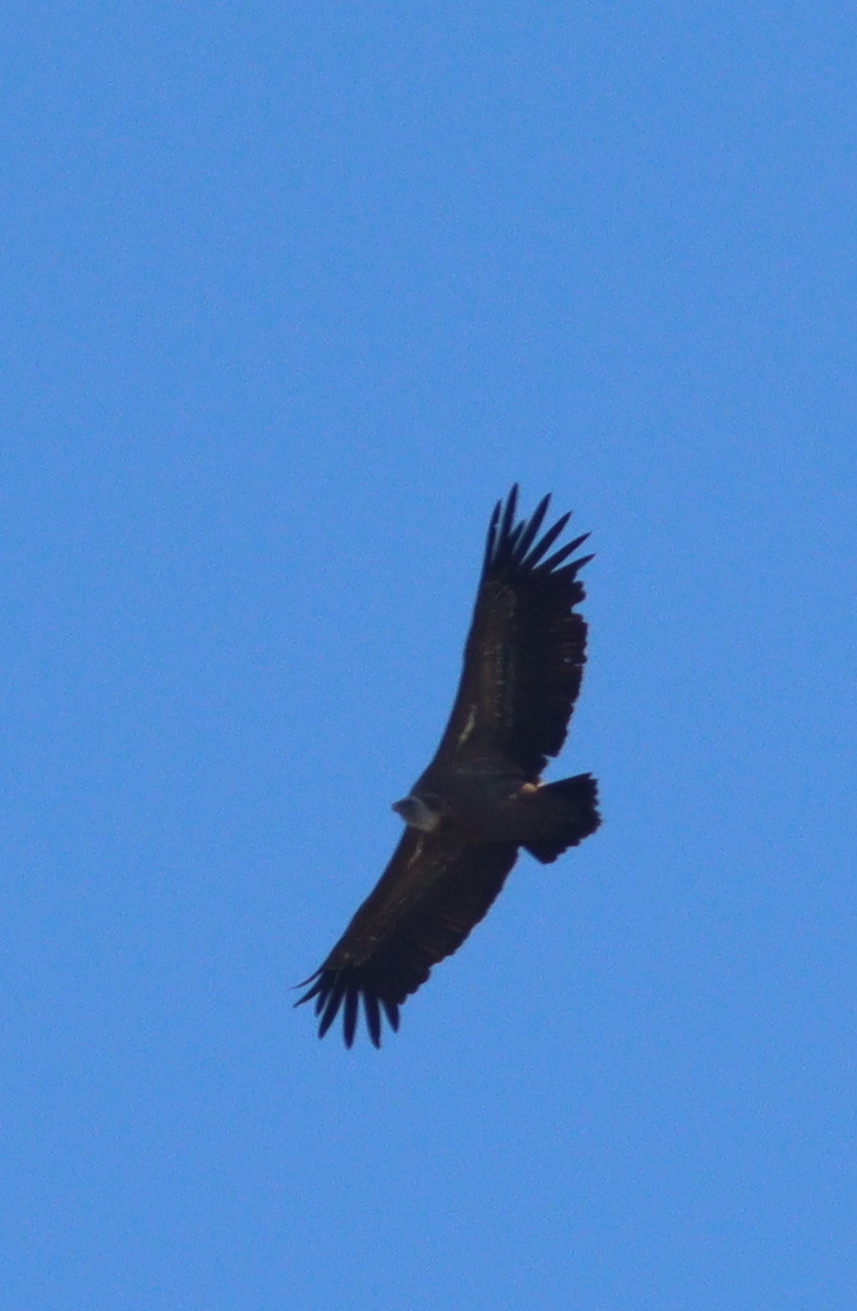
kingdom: Animalia
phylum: Chordata
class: Aves
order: Accipitriformes
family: Accipitridae
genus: Gyps
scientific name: Gyps fulvus
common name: Griffon vulture
